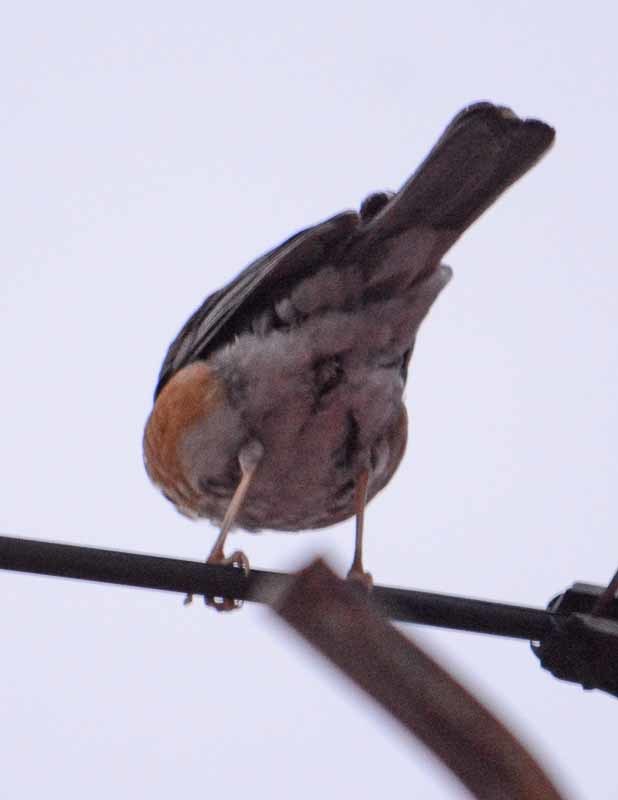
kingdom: Animalia
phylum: Chordata
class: Aves
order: Passeriformes
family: Turdidae
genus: Turdus
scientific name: Turdus rufopalliatus
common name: Rufous-backed robin
